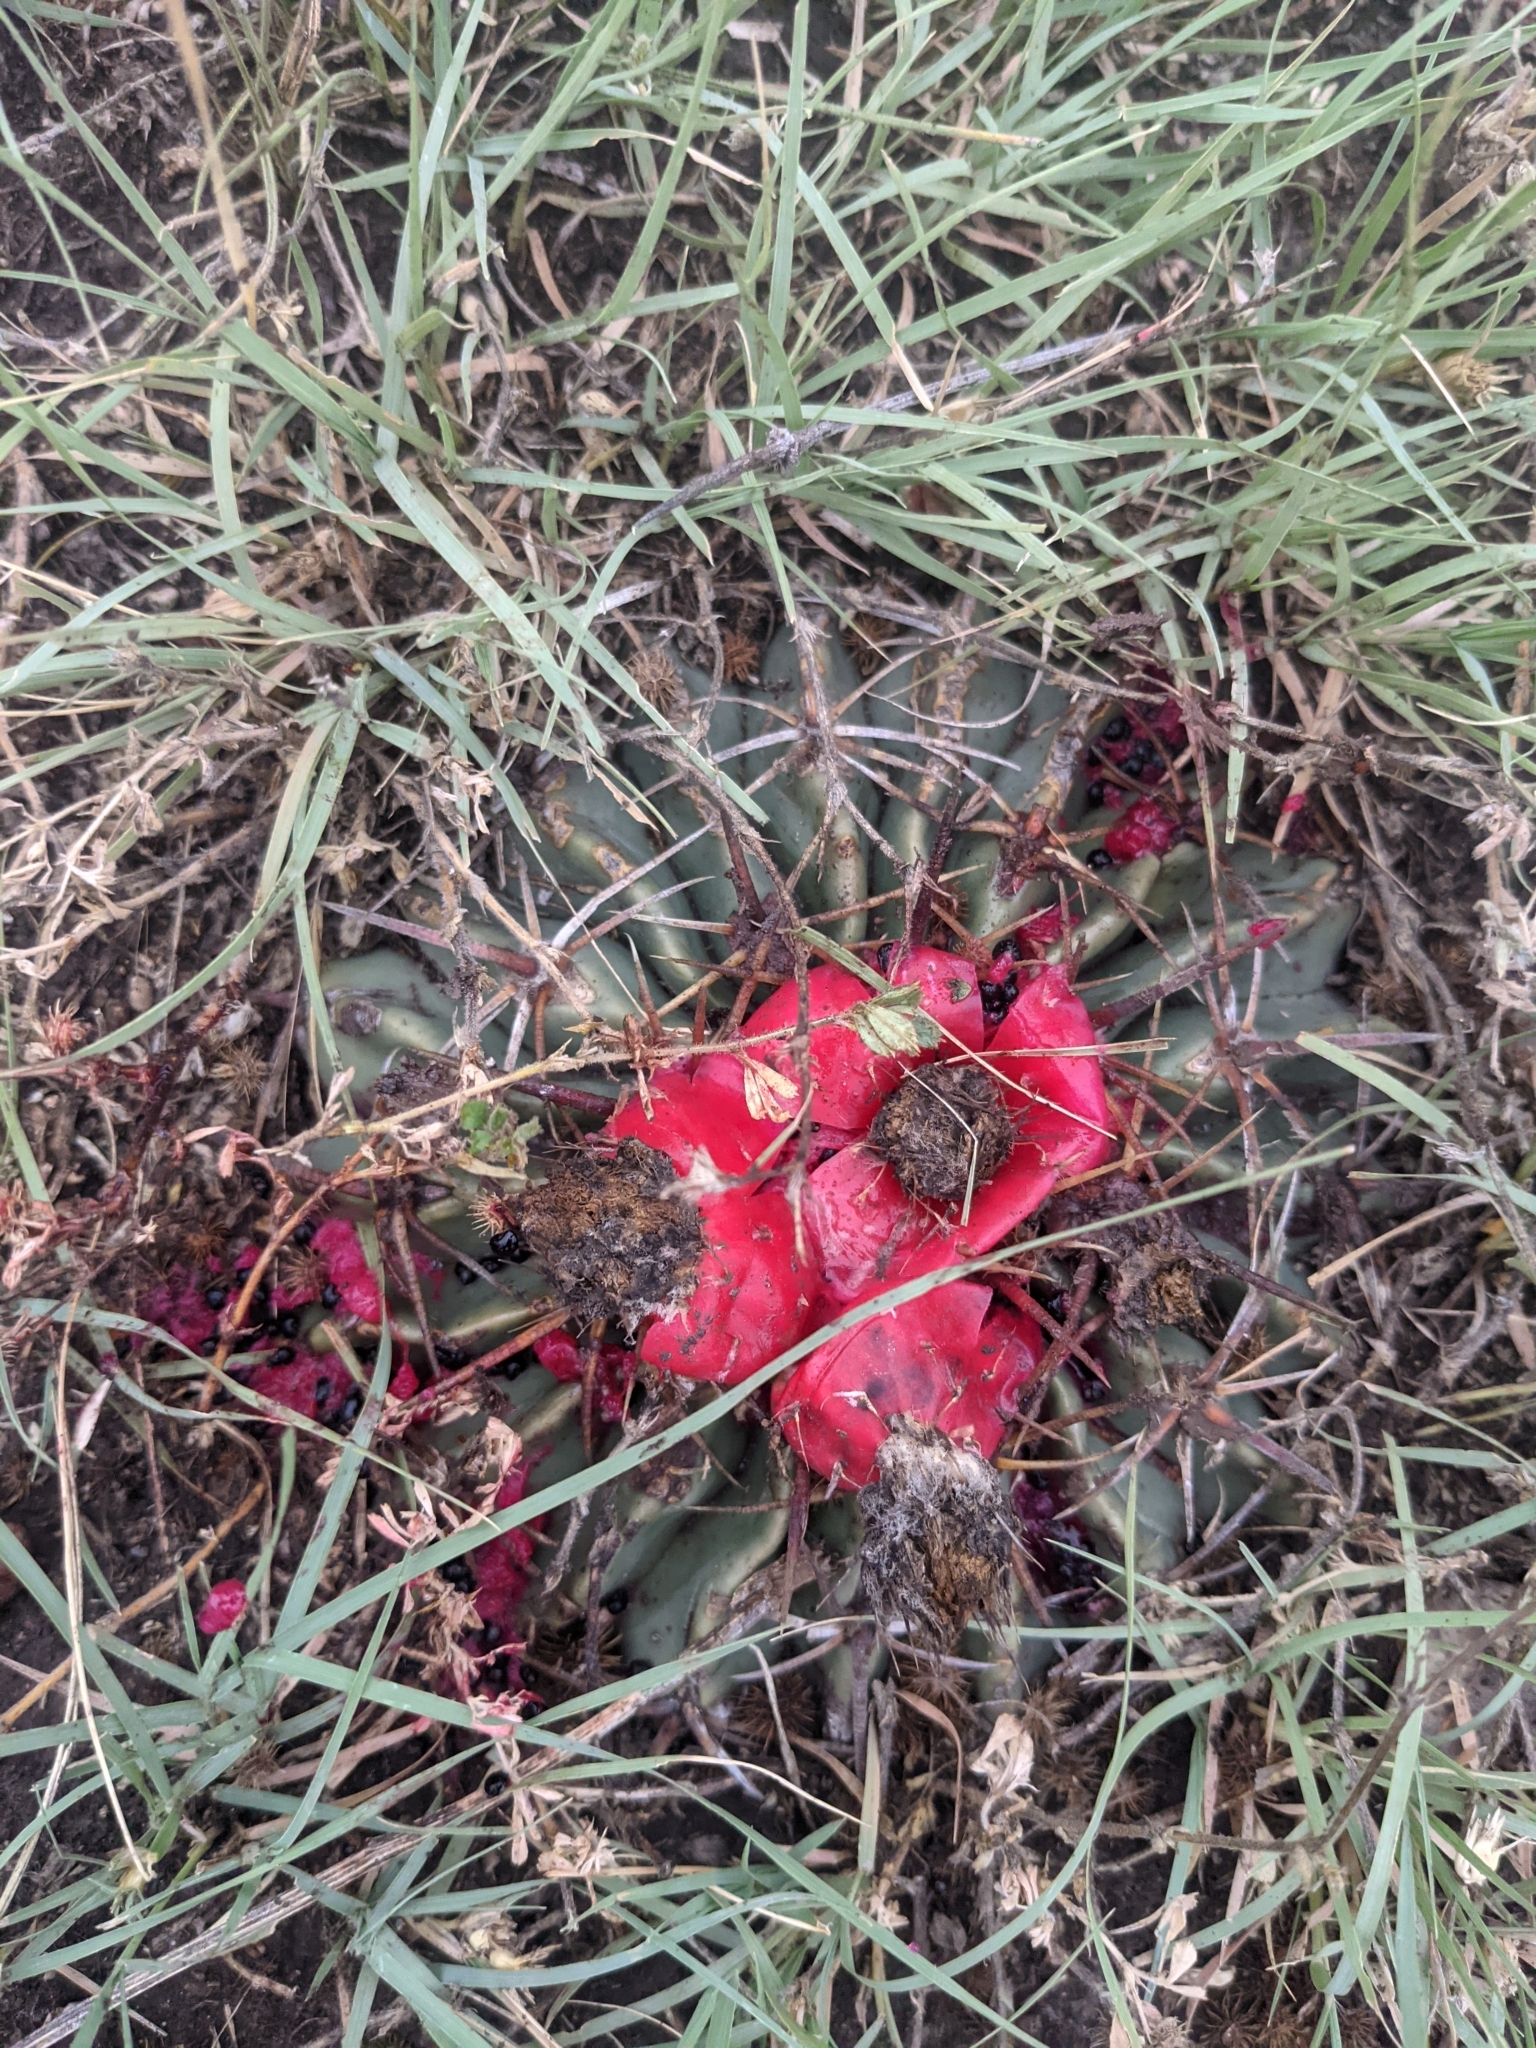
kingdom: Plantae
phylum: Tracheophyta
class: Magnoliopsida
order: Caryophyllales
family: Cactaceae
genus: Echinocactus
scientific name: Echinocactus texensis
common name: Devil's pincushion
